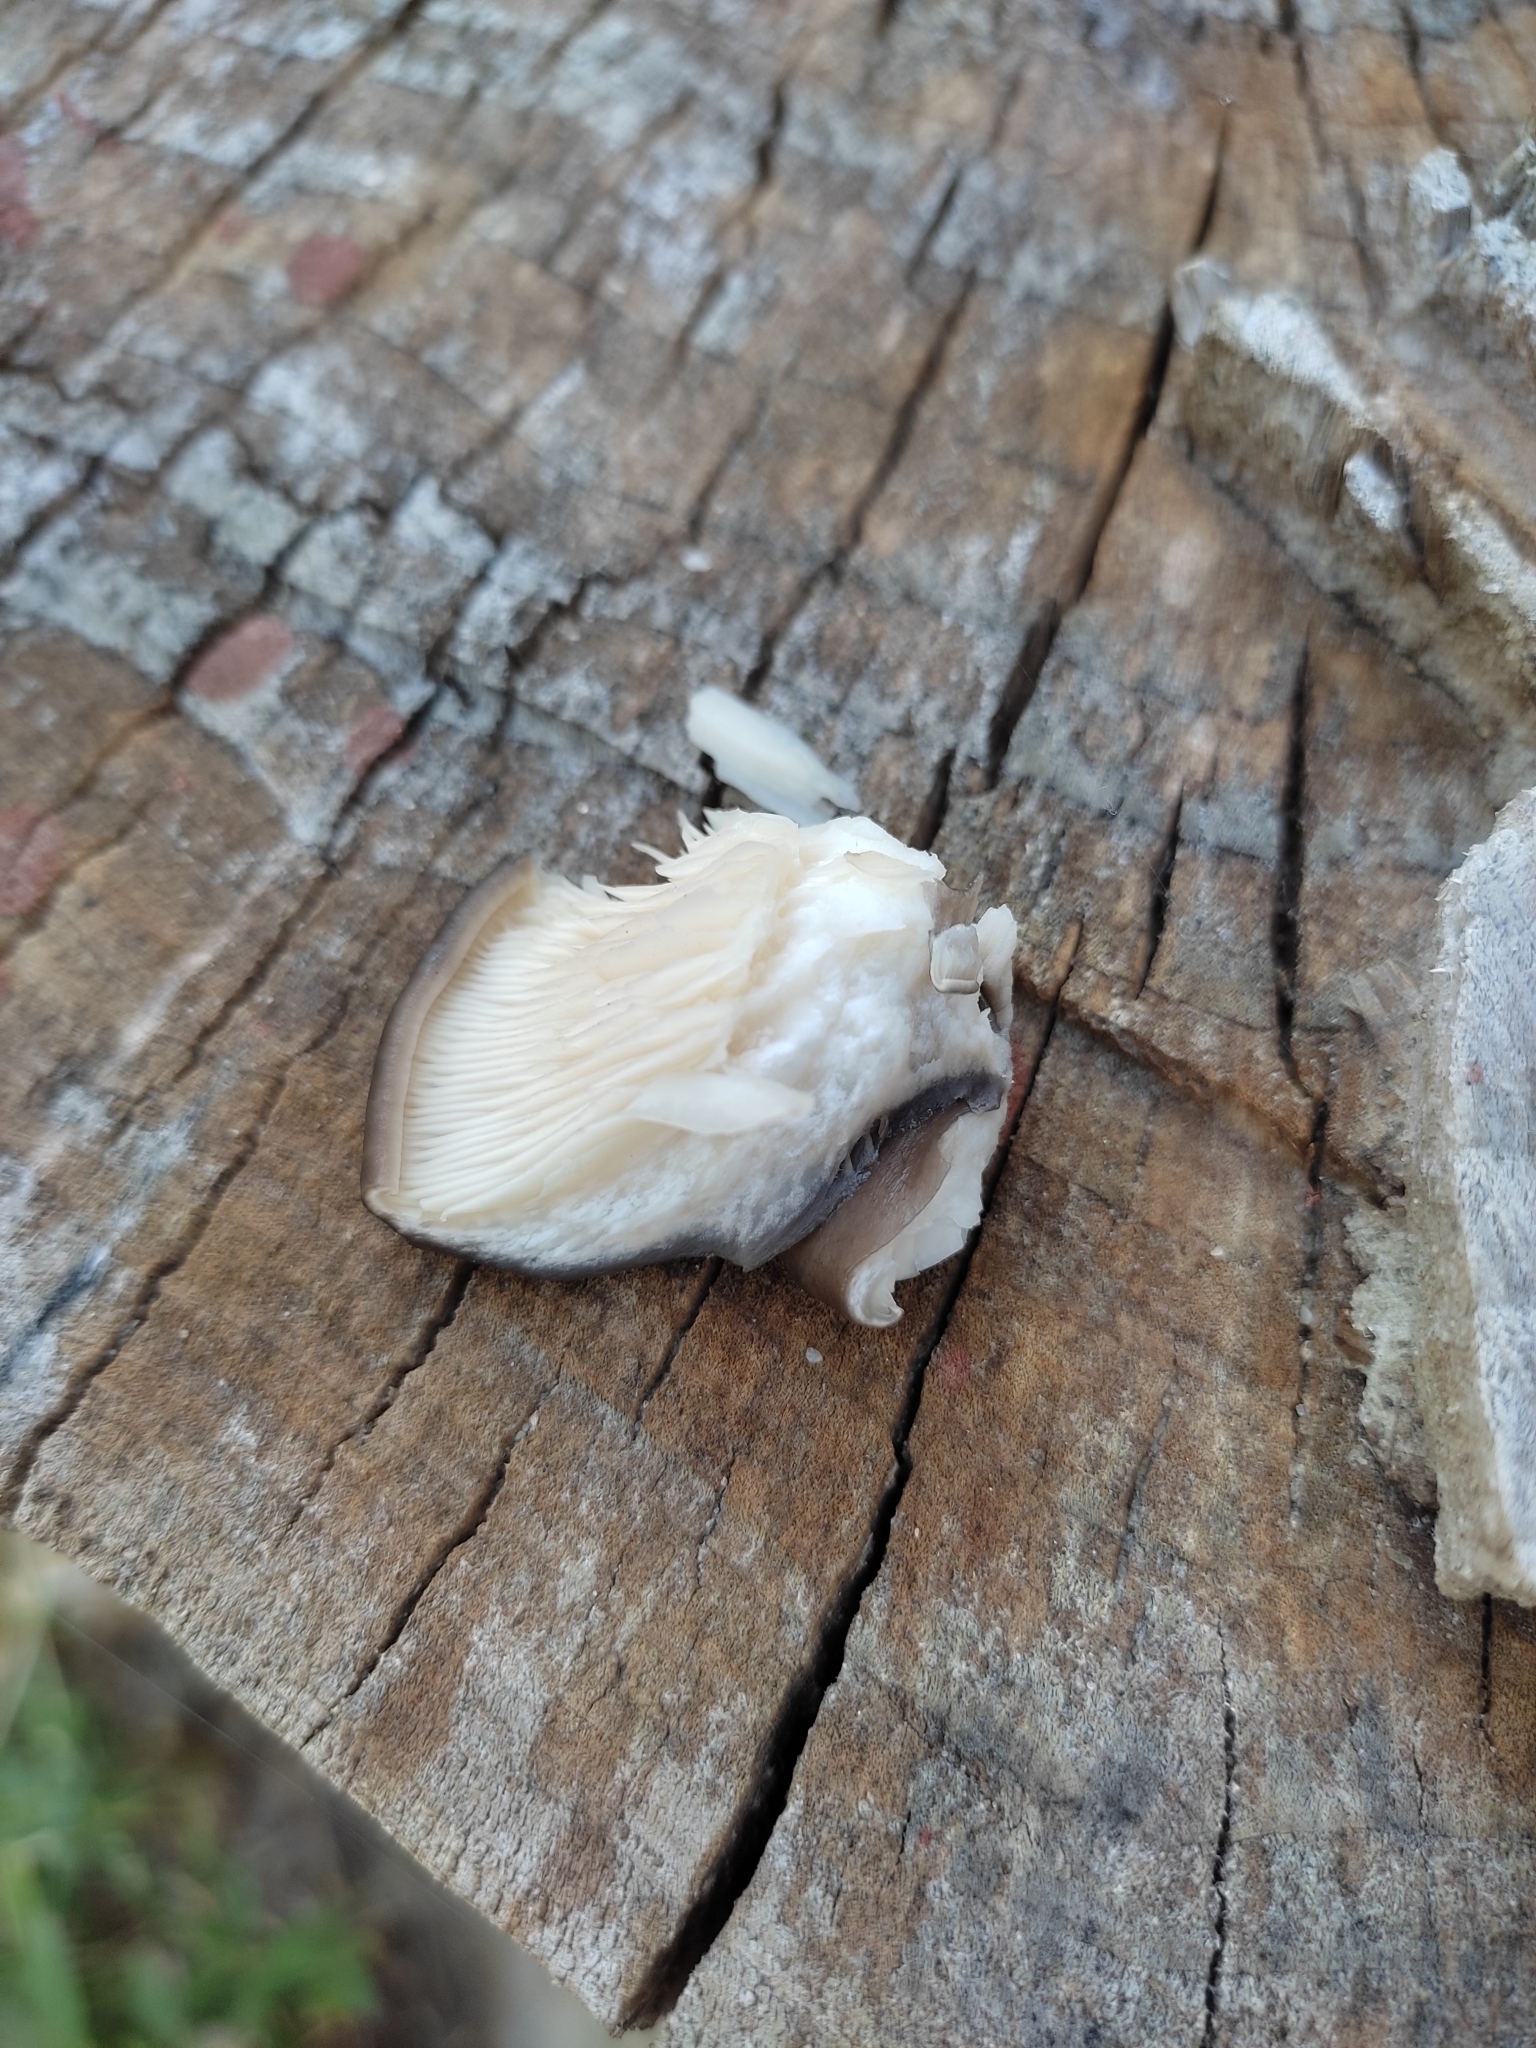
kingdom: Fungi
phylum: Basidiomycota
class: Agaricomycetes
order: Agaricales
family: Pleurotaceae
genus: Pleurotus
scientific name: Pleurotus ostreatus
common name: Oyster mushroom
